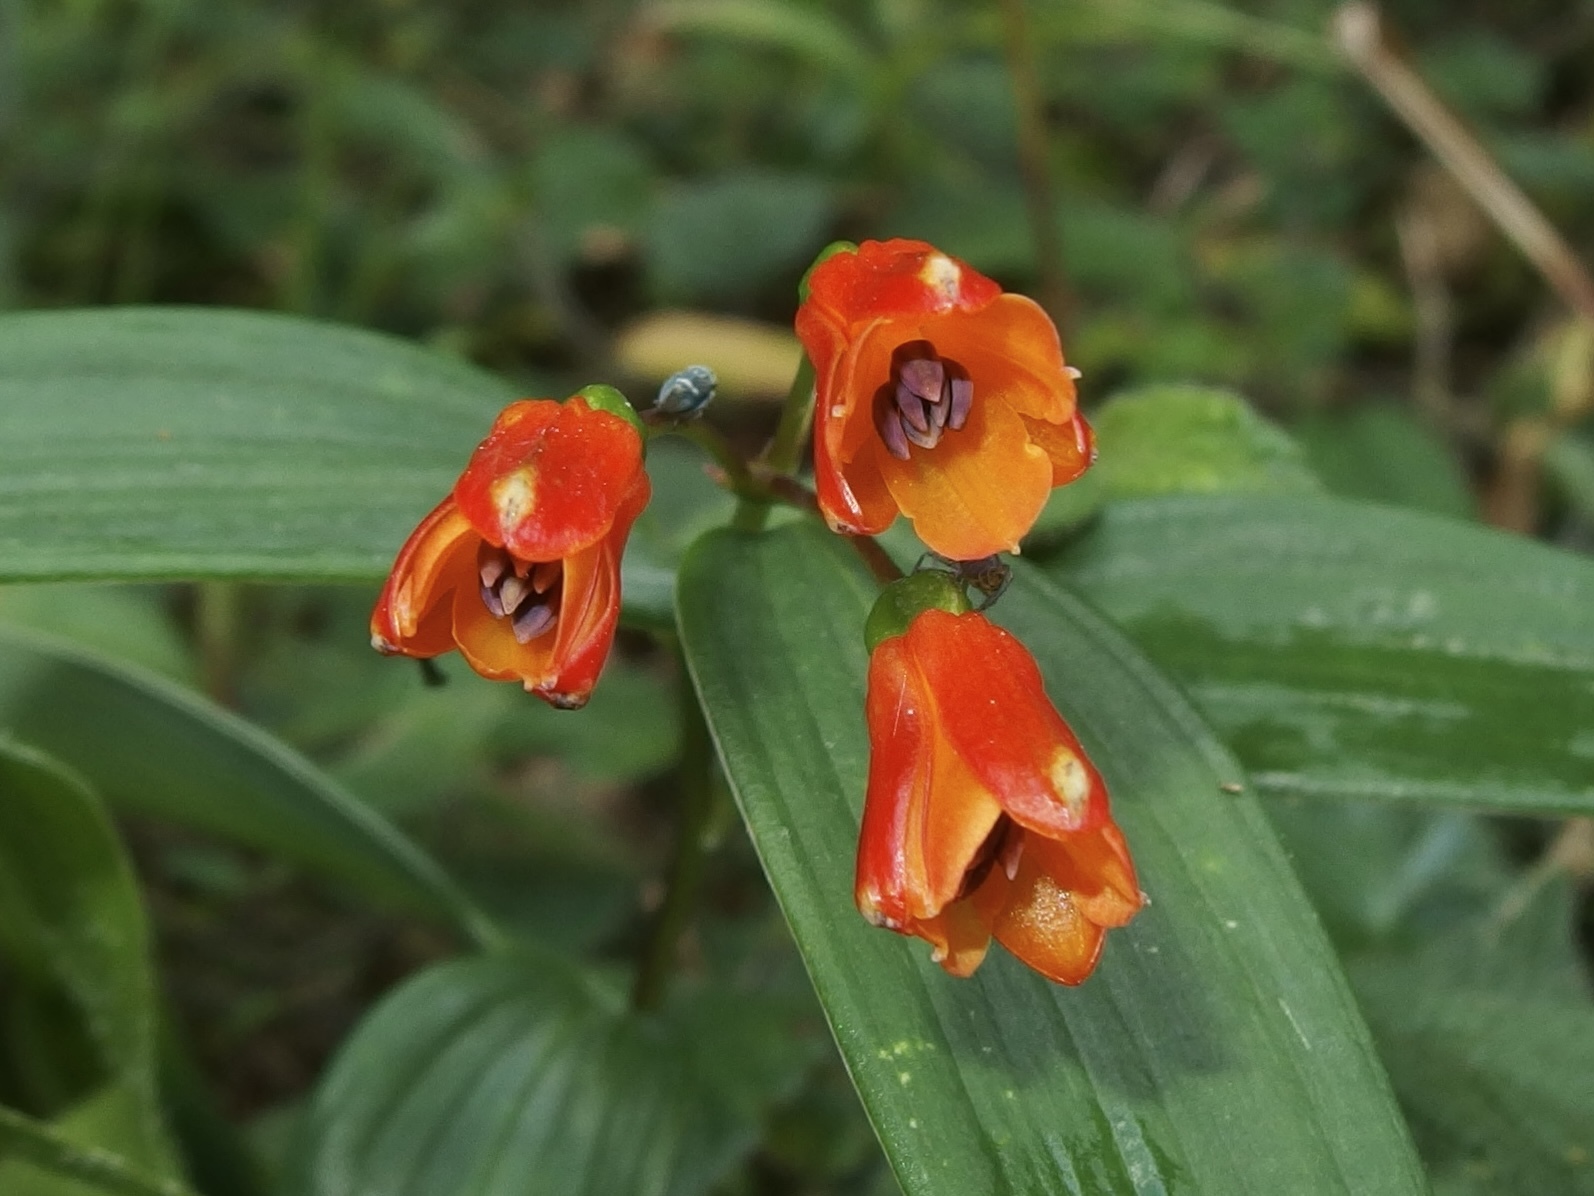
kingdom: Plantae
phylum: Tracheophyta
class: Liliopsida
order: Liliales
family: Alstroemeriaceae
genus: Bomarea
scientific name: Bomarea distichifolia
